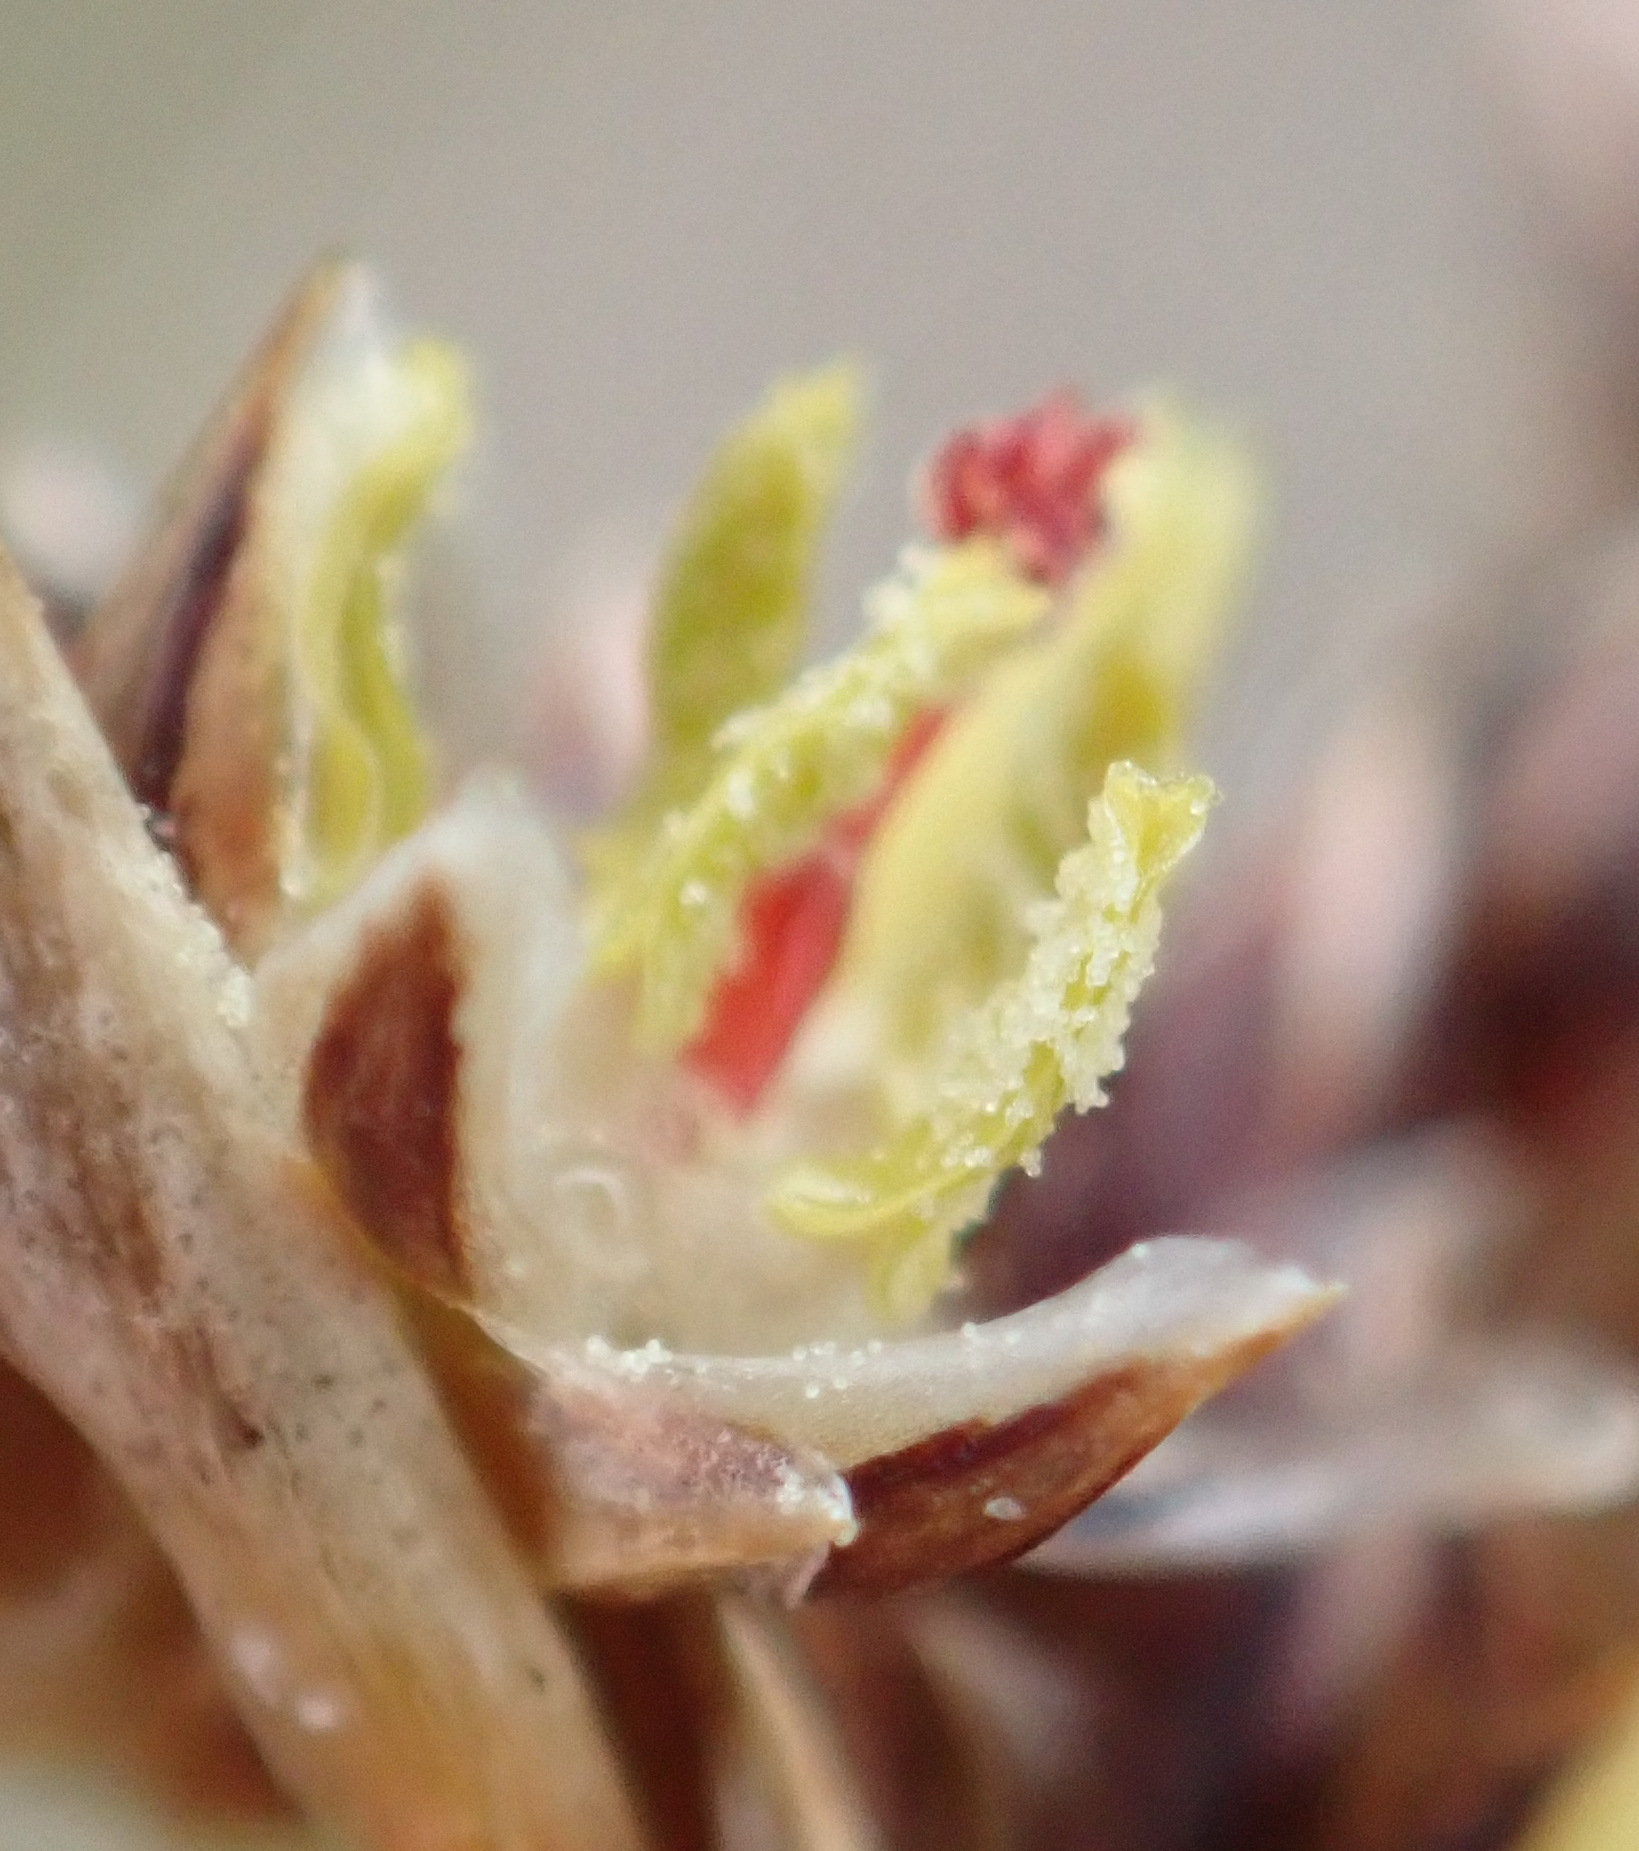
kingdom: Plantae
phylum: Tracheophyta
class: Liliopsida
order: Poales
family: Juncaceae
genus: Juncus
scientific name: Juncus kraussii
